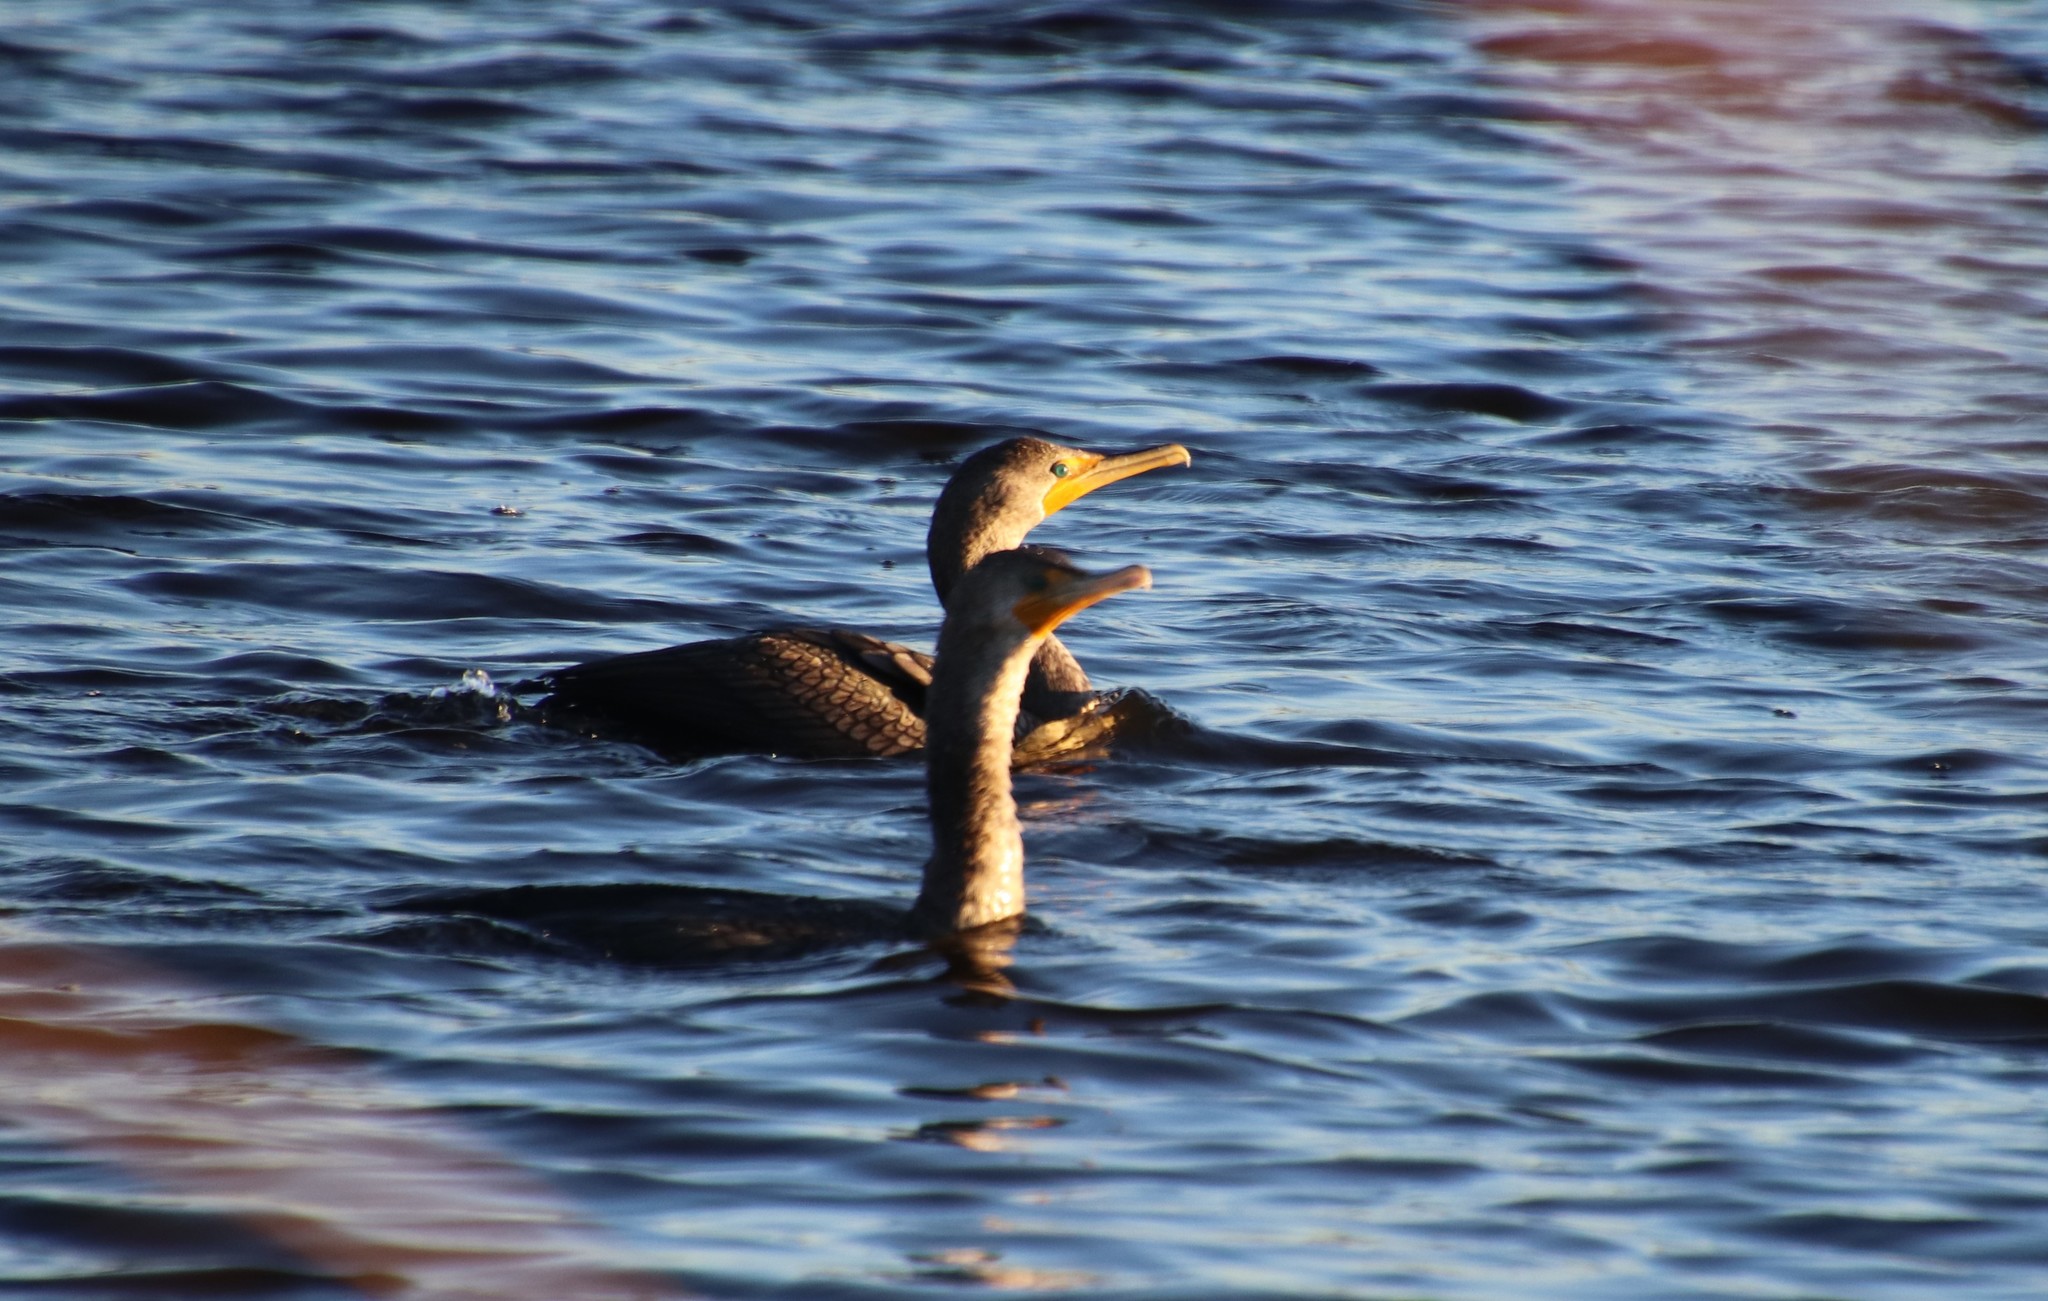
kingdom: Animalia
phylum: Chordata
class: Aves
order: Suliformes
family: Phalacrocoracidae
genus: Phalacrocorax
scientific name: Phalacrocorax auritus
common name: Double-crested cormorant
